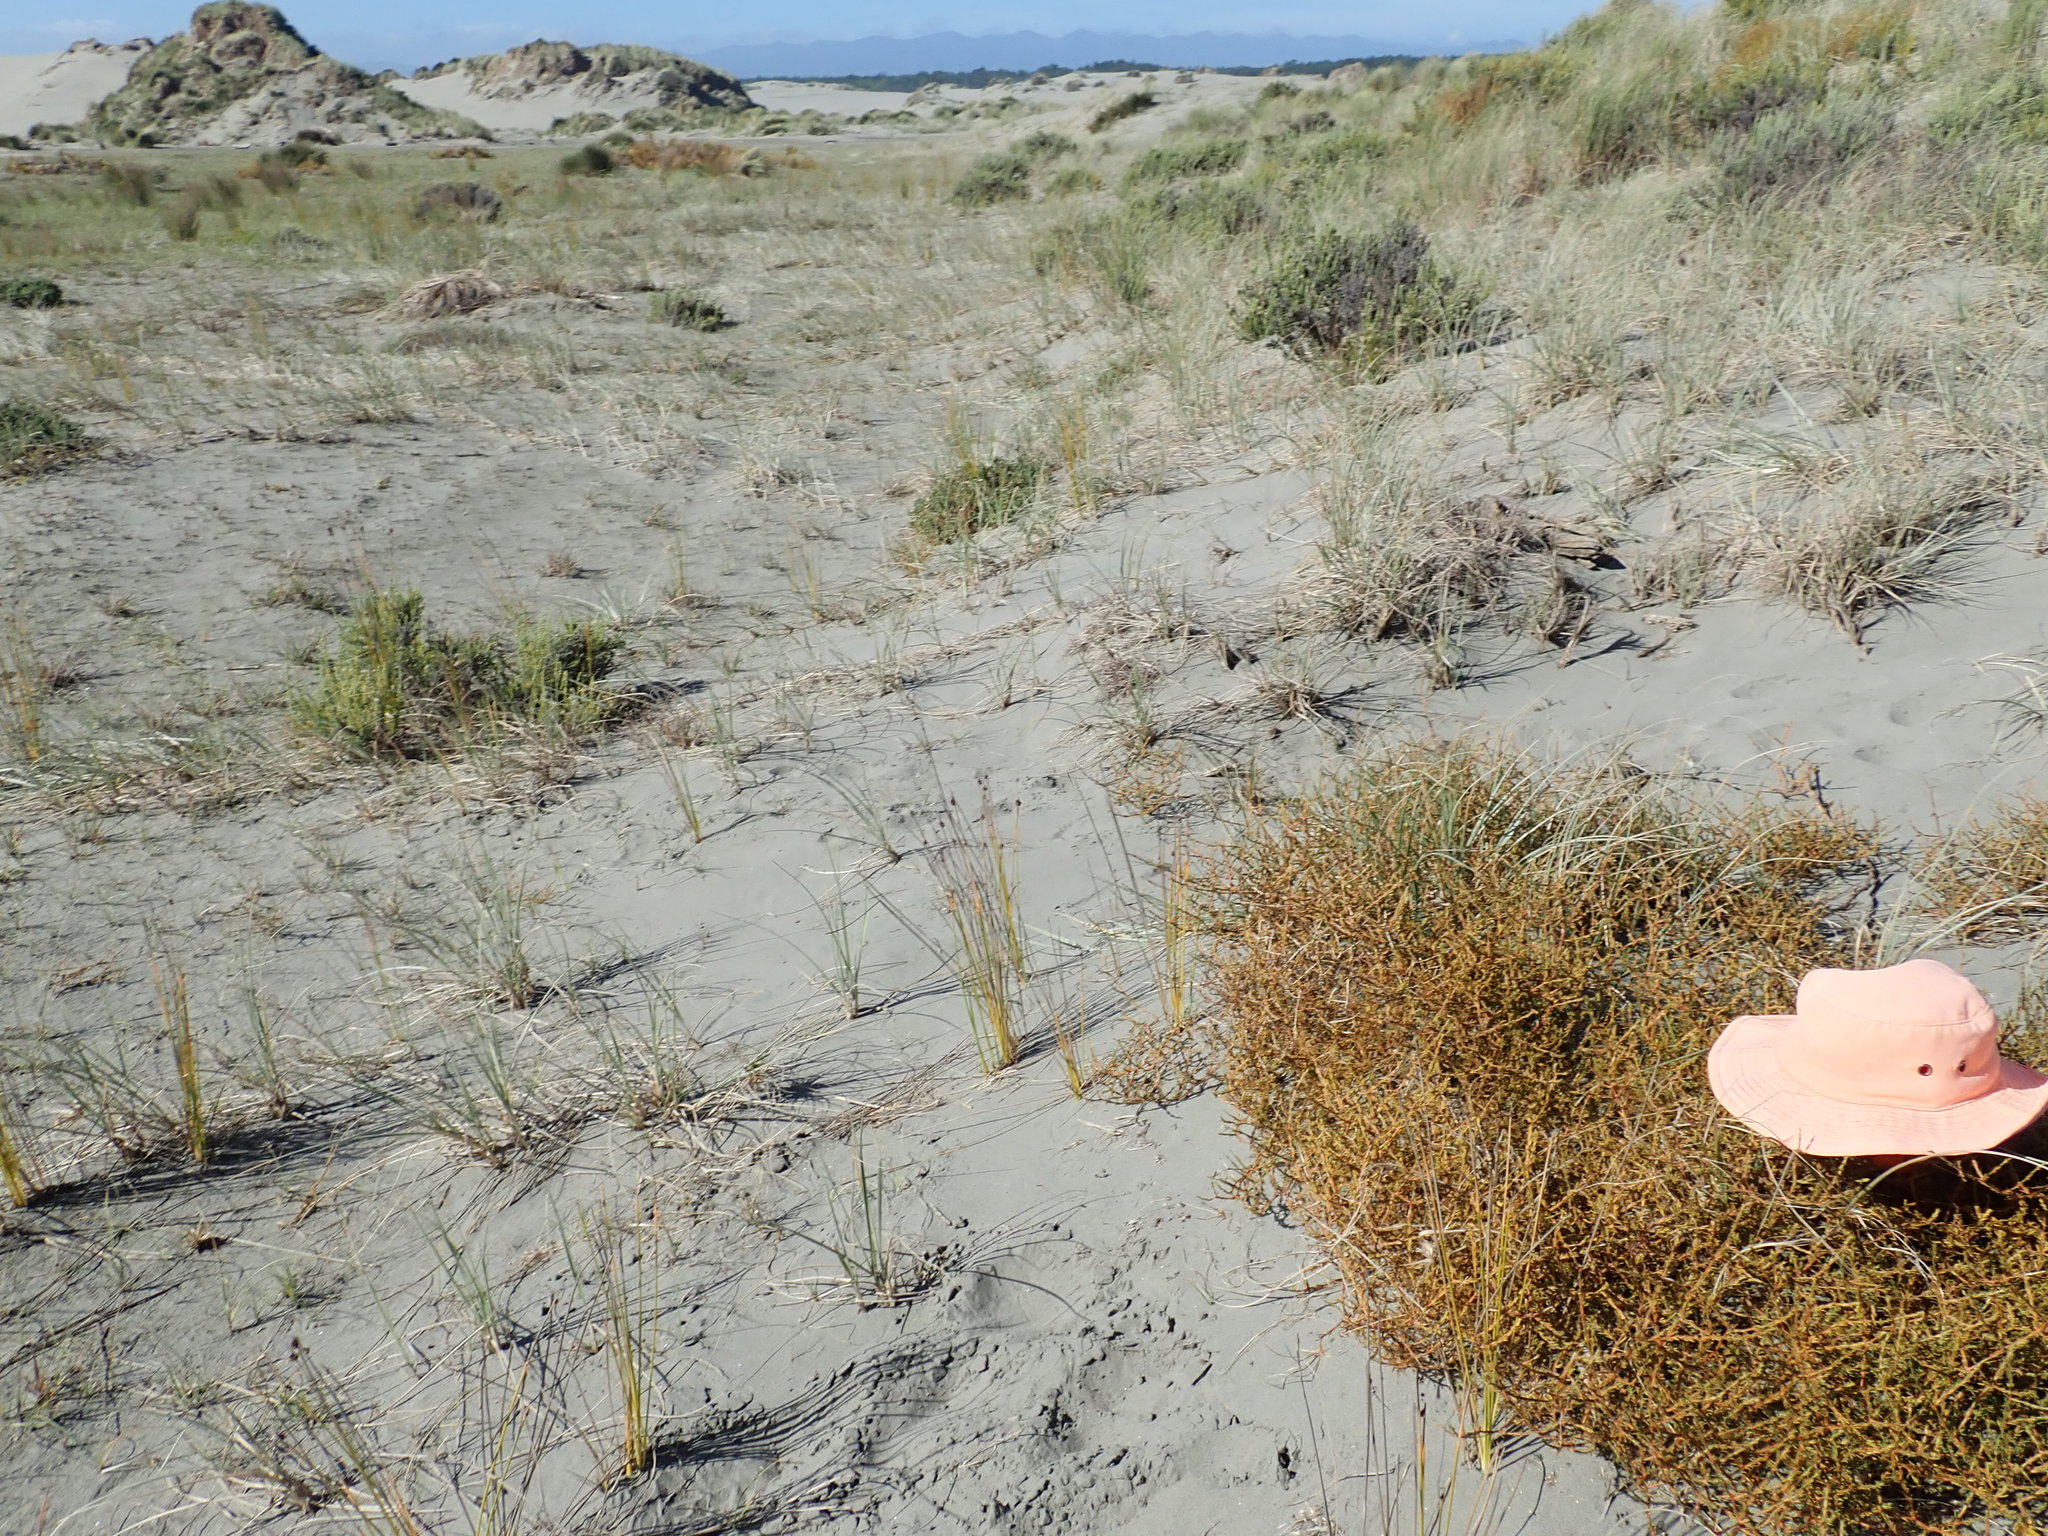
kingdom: Plantae
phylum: Tracheophyta
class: Magnoliopsida
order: Gentianales
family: Rubiaceae
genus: Coprosma
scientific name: Coprosma acerosa
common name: Sand coprosma
